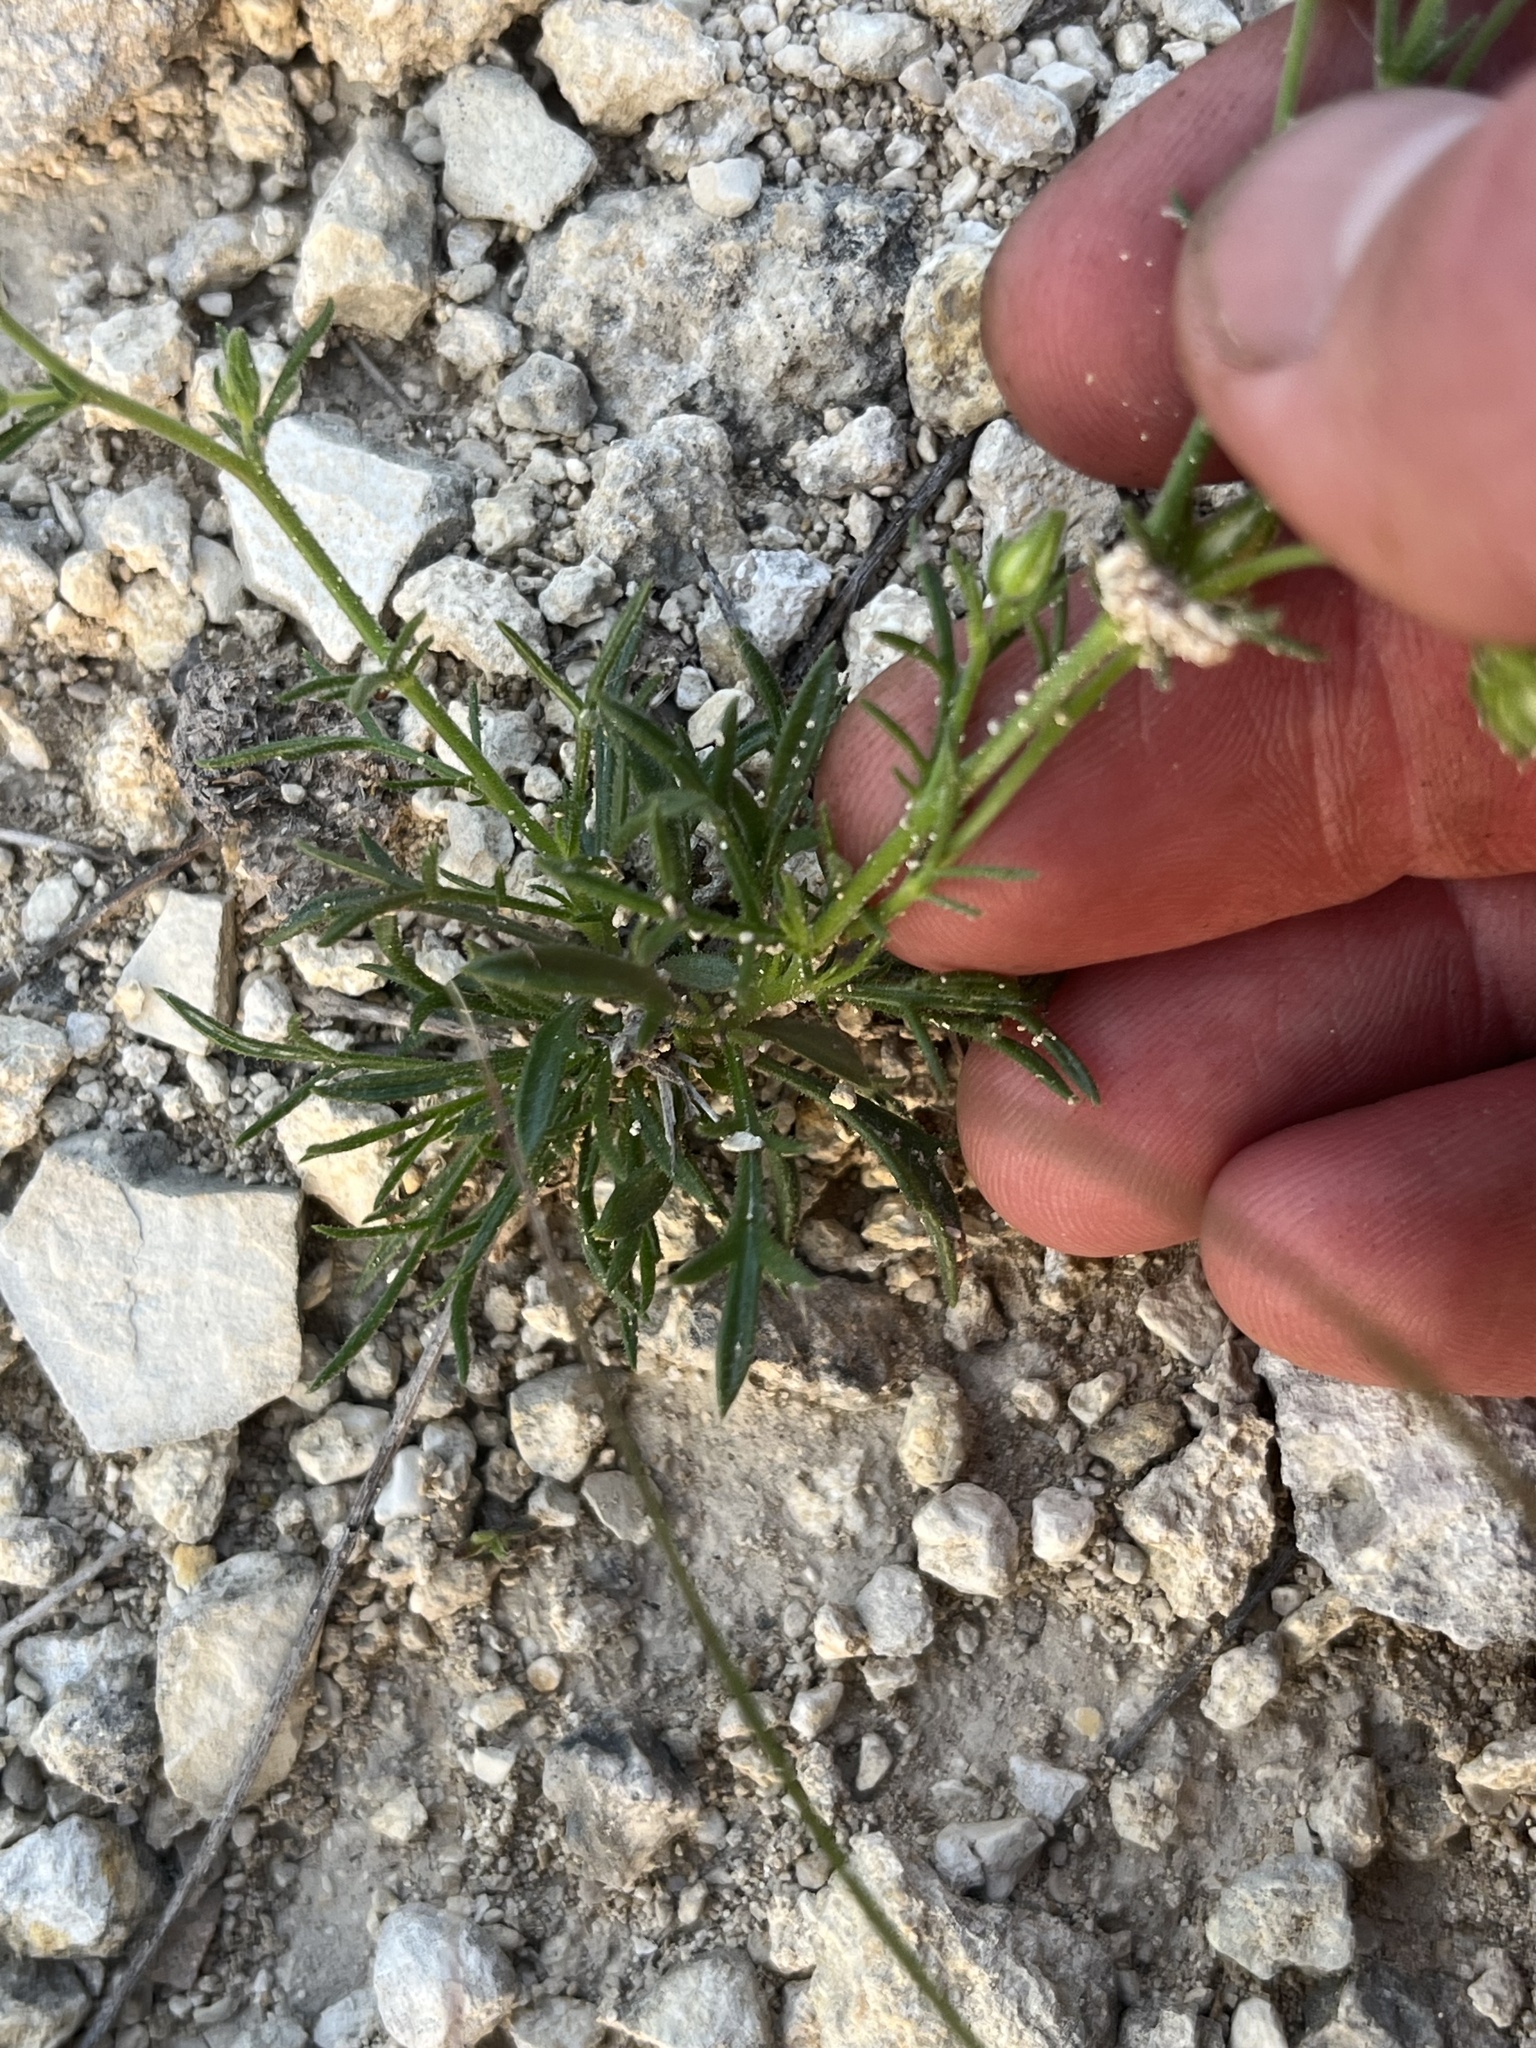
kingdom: Plantae
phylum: Tracheophyta
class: Magnoliopsida
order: Ericales
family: Polemoniaceae
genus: Giliastrum
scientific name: Giliastrum rigidulum
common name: Bluebowls
